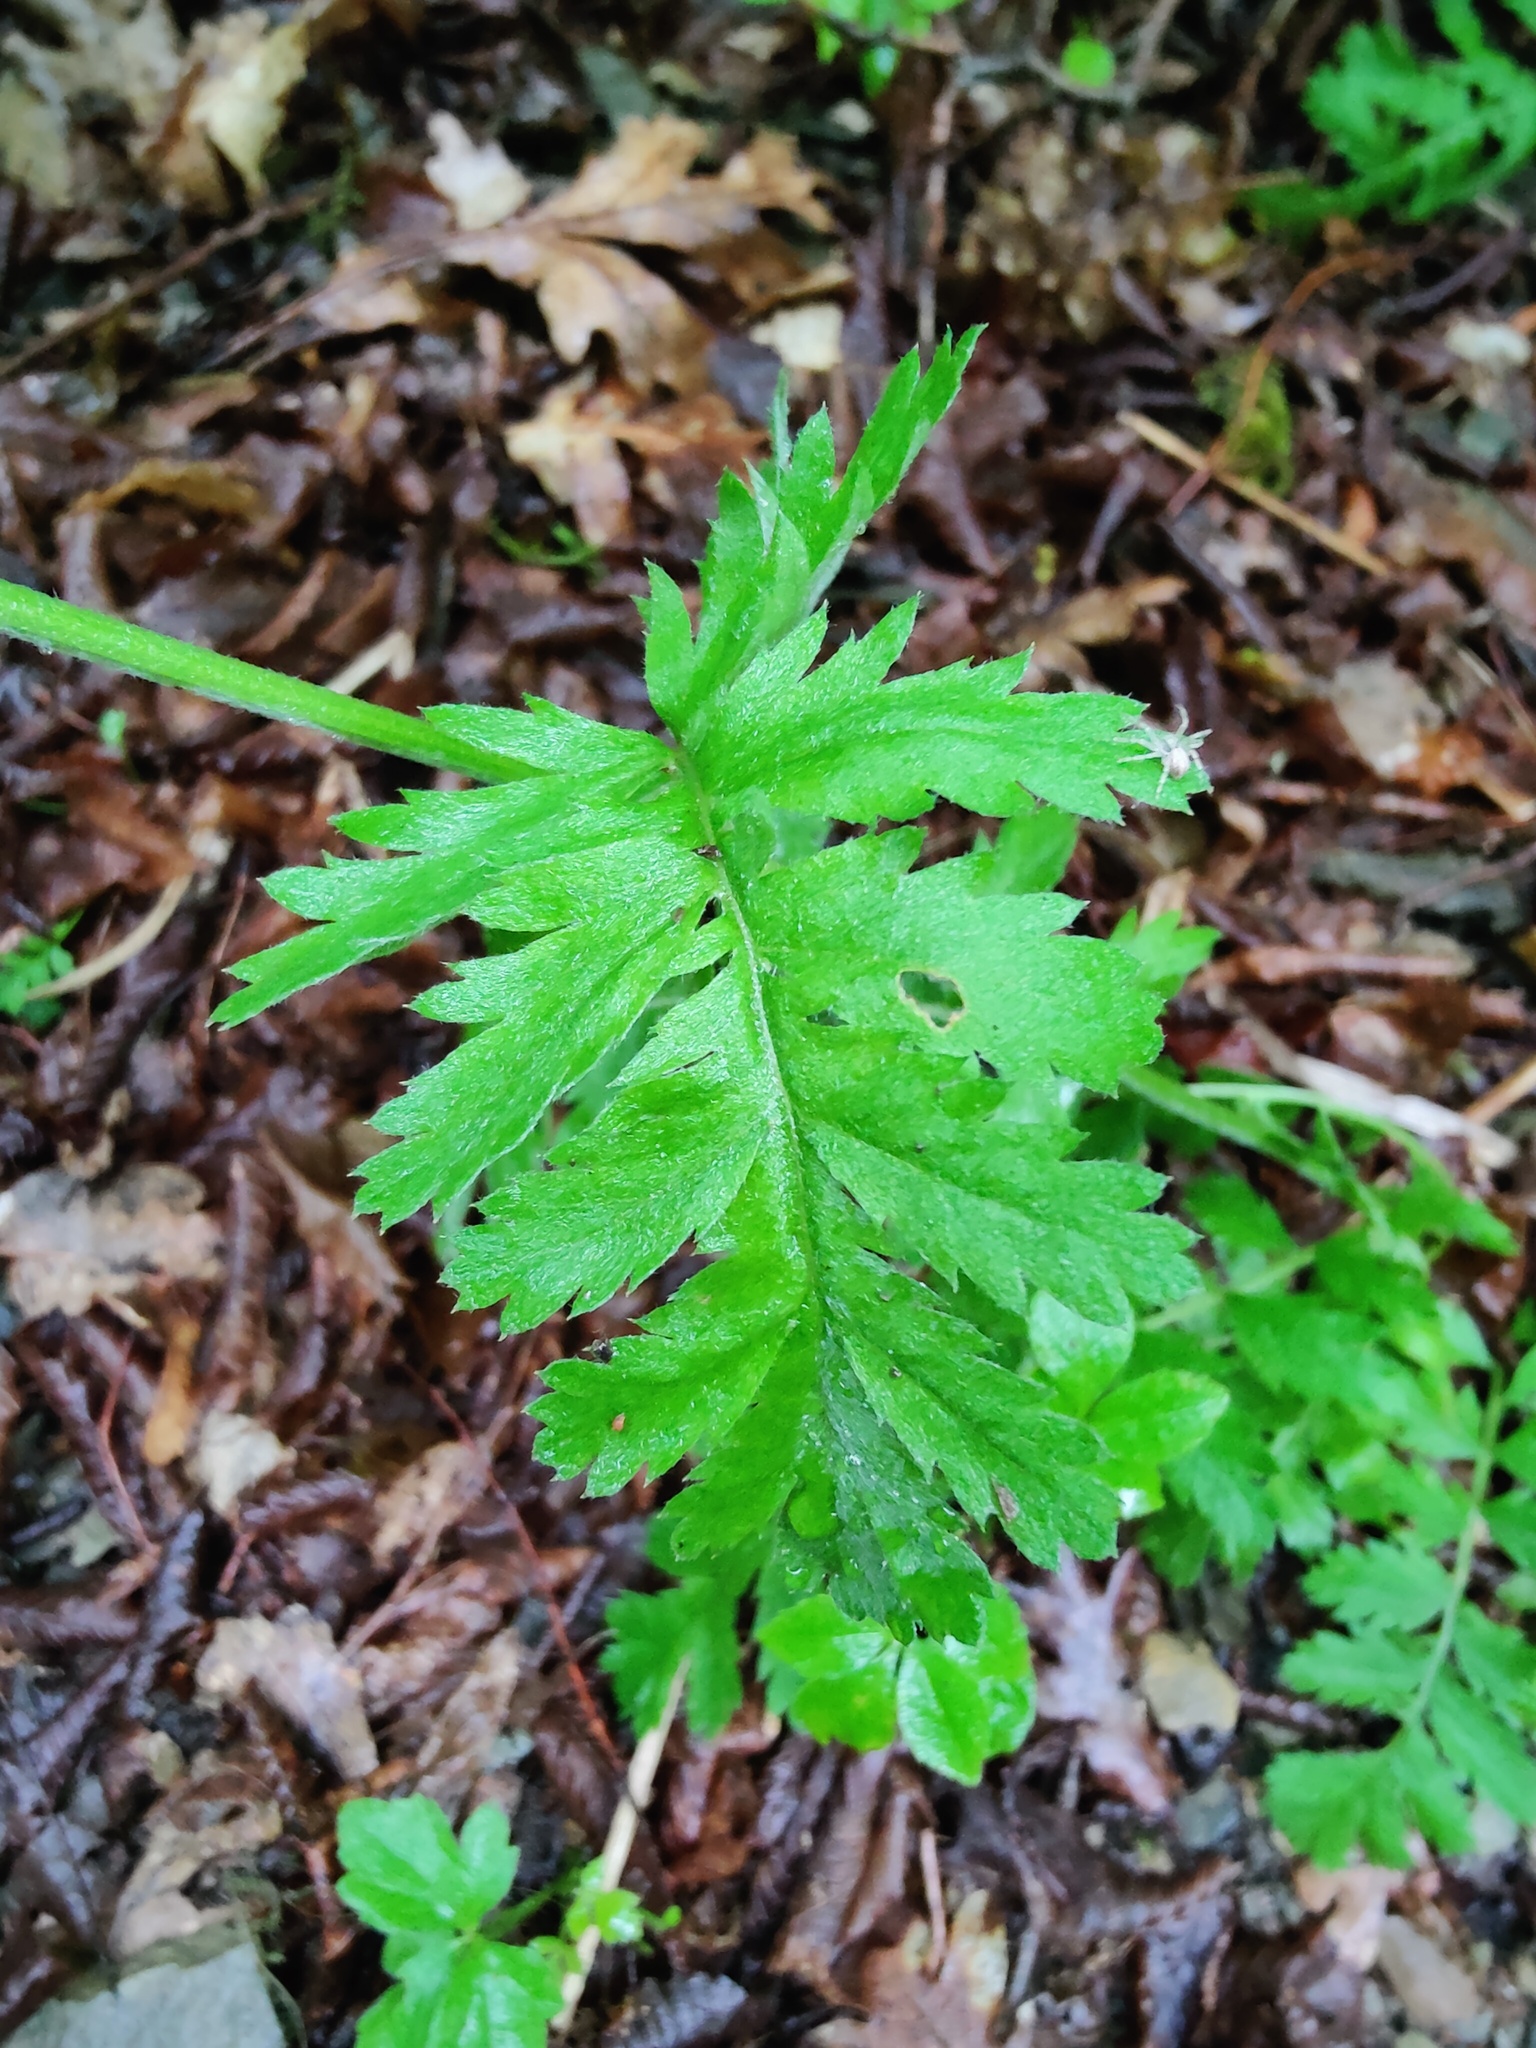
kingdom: Plantae
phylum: Tracheophyta
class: Magnoliopsida
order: Asterales
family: Asteraceae
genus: Tanacetum
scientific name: Tanacetum partheniifolium
